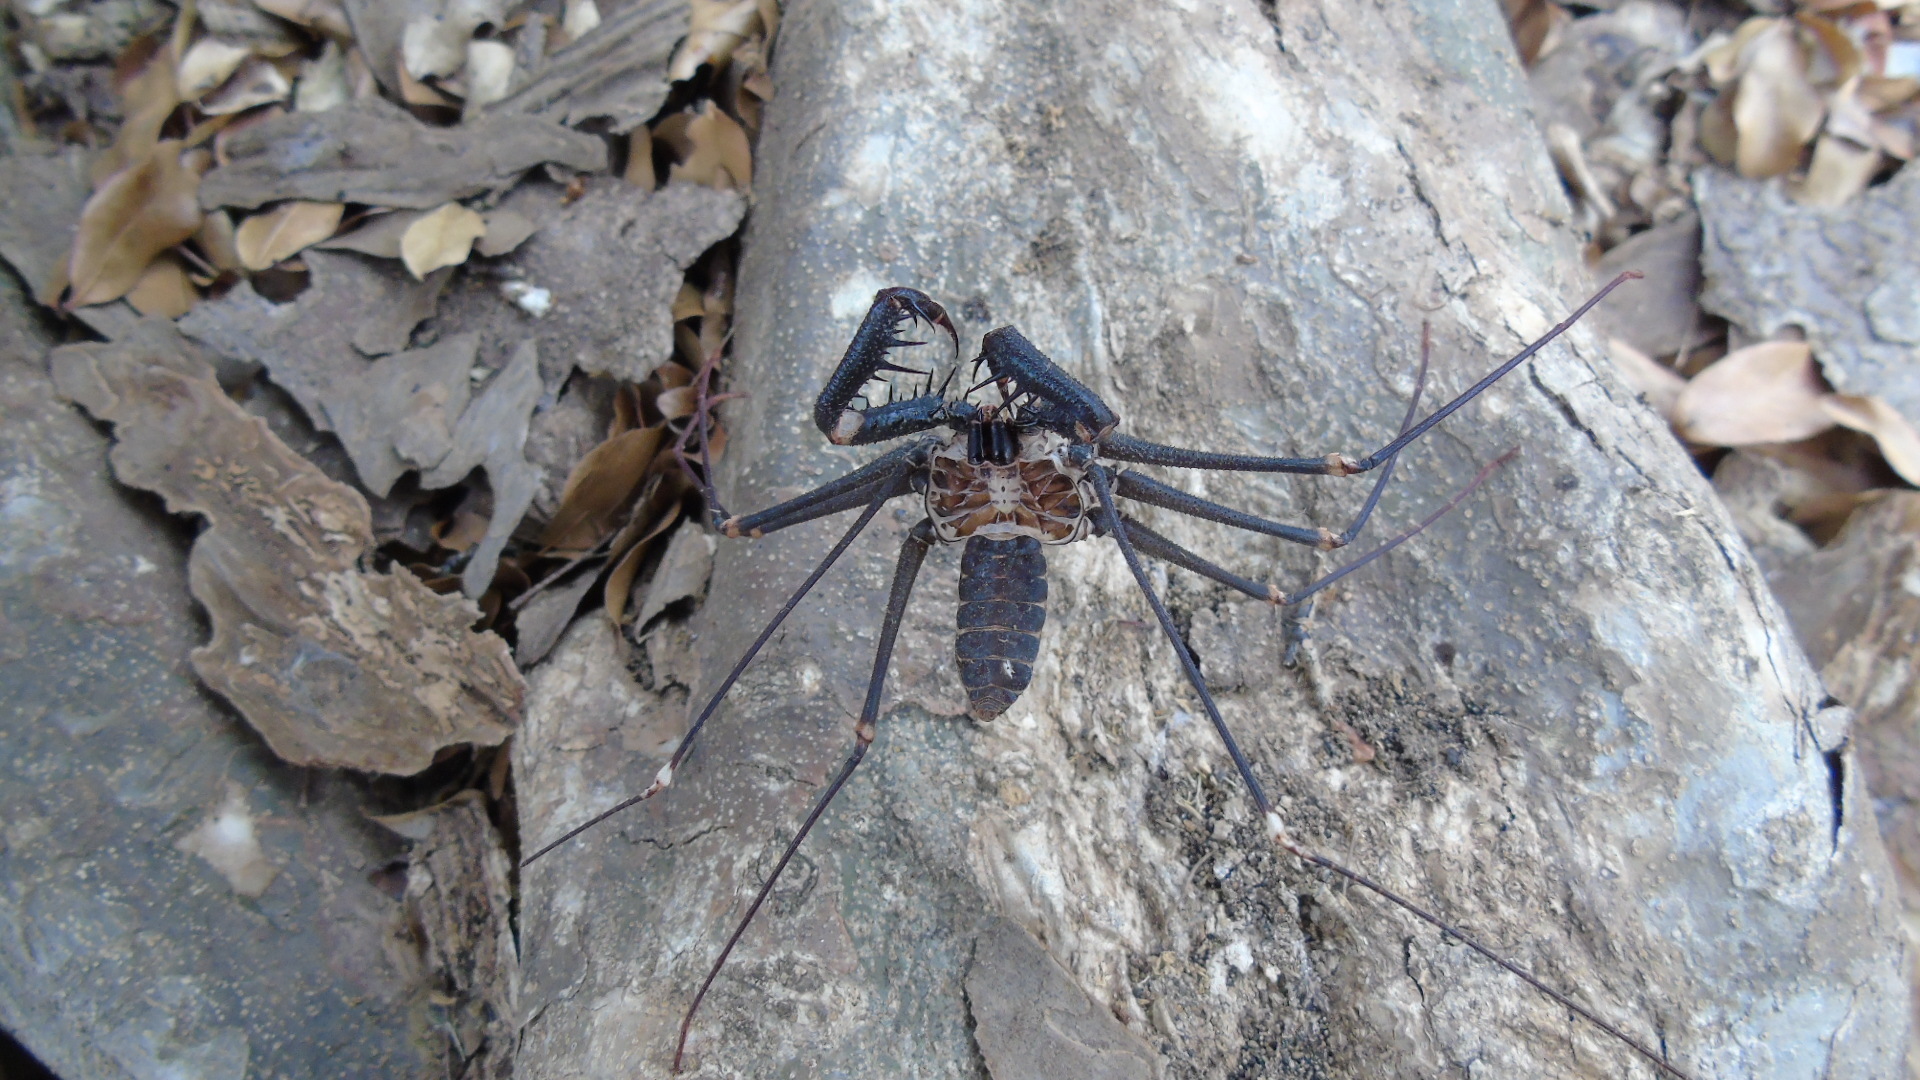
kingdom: Animalia
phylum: Arthropoda
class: Arachnida
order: Amblypygi
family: Phrynidae
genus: Acanthophrynus
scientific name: Acanthophrynus coronatus
